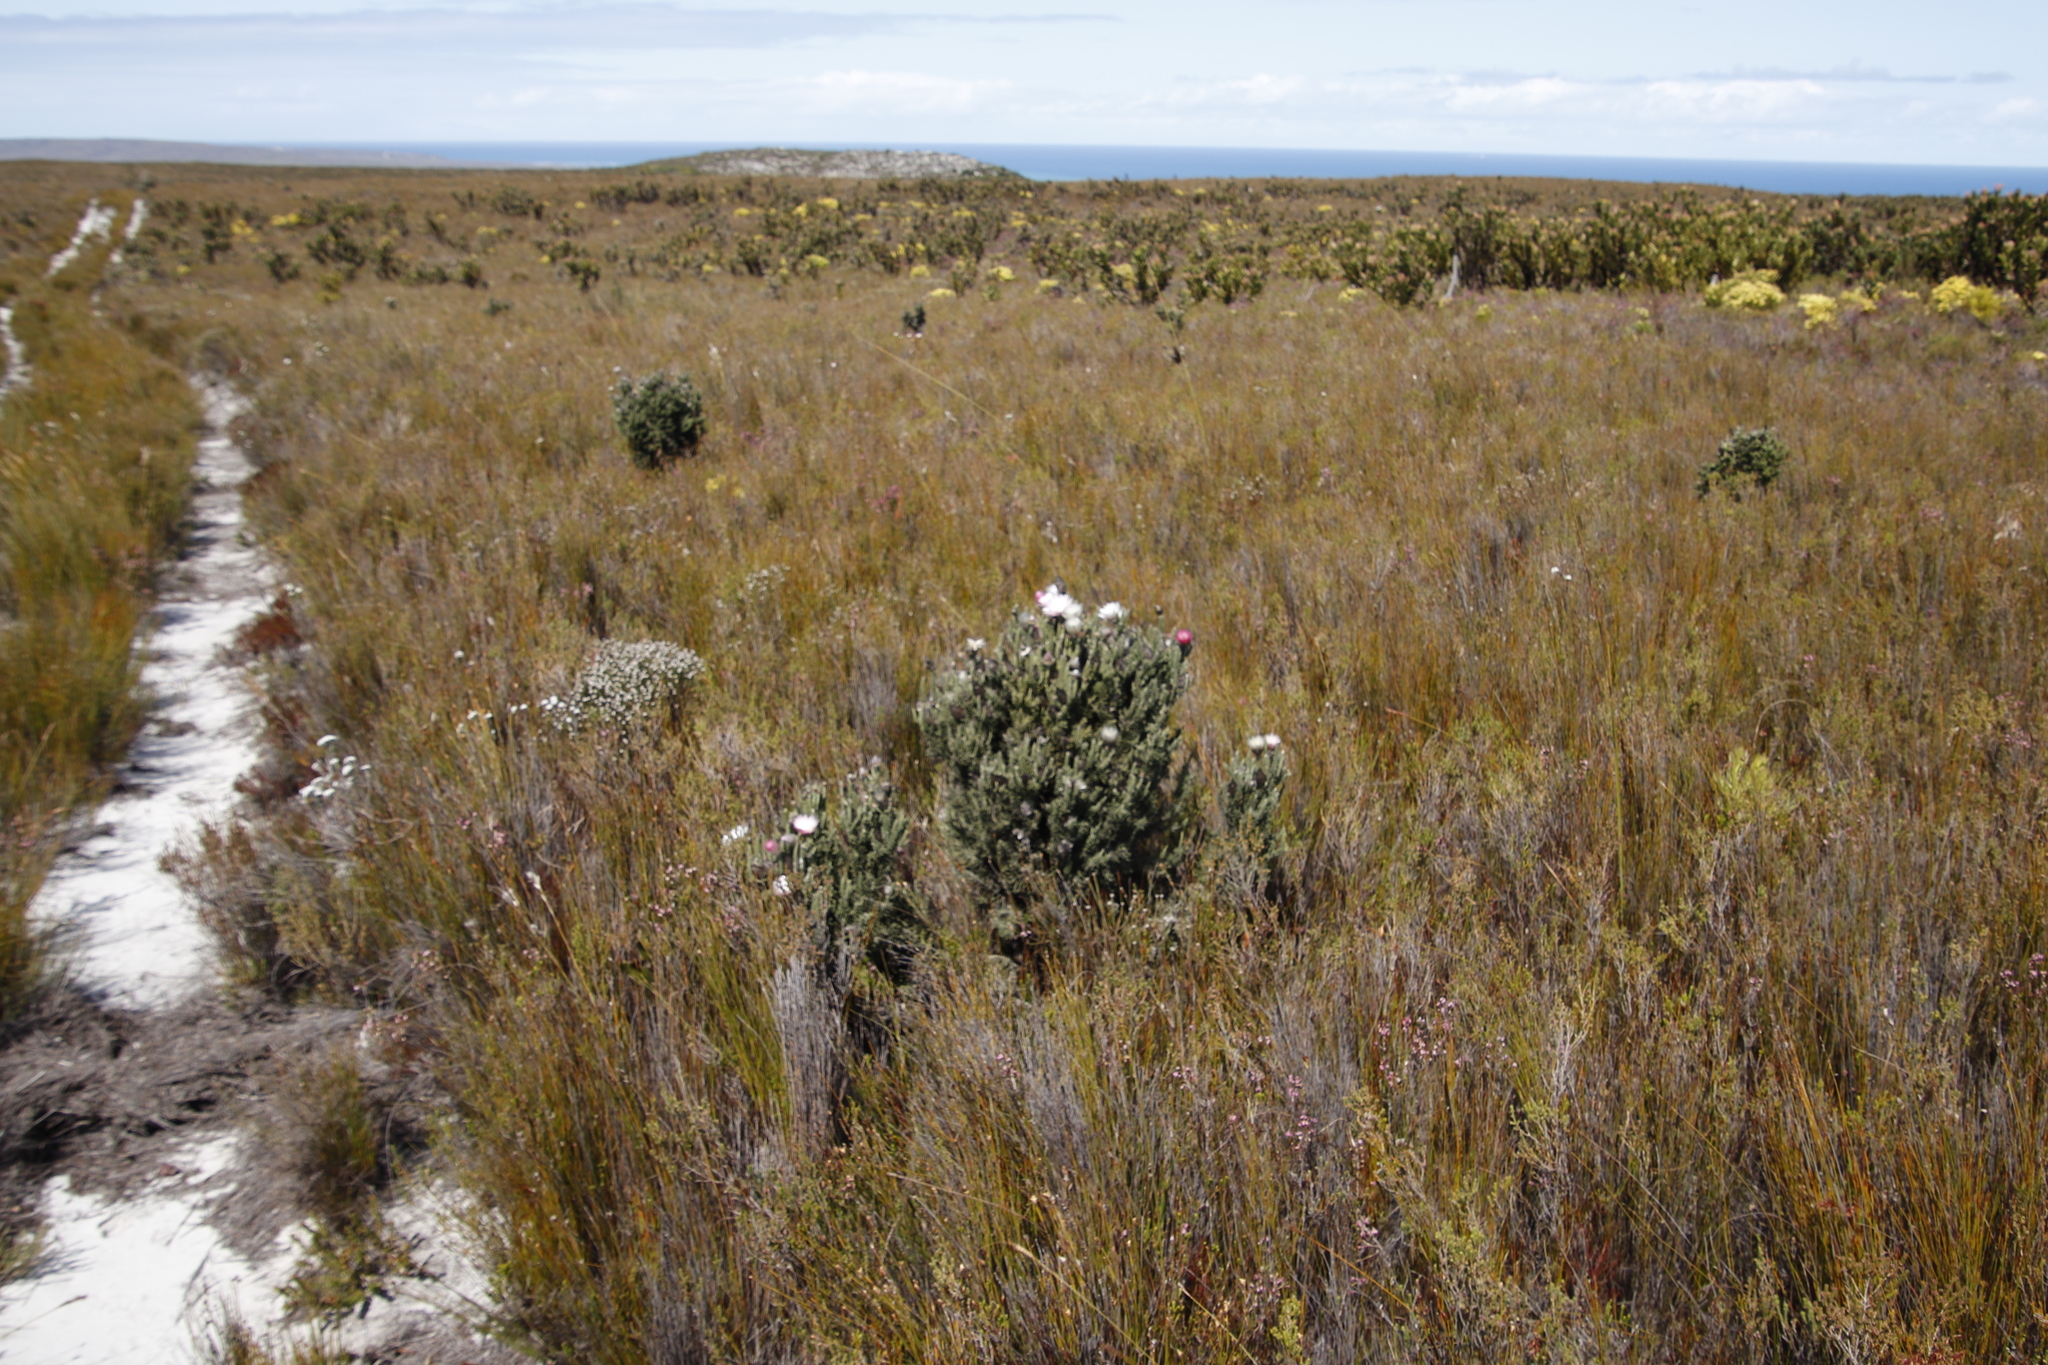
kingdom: Plantae
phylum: Tracheophyta
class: Magnoliopsida
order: Asterales
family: Asteraceae
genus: Phaenocoma
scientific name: Phaenocoma prolifera
